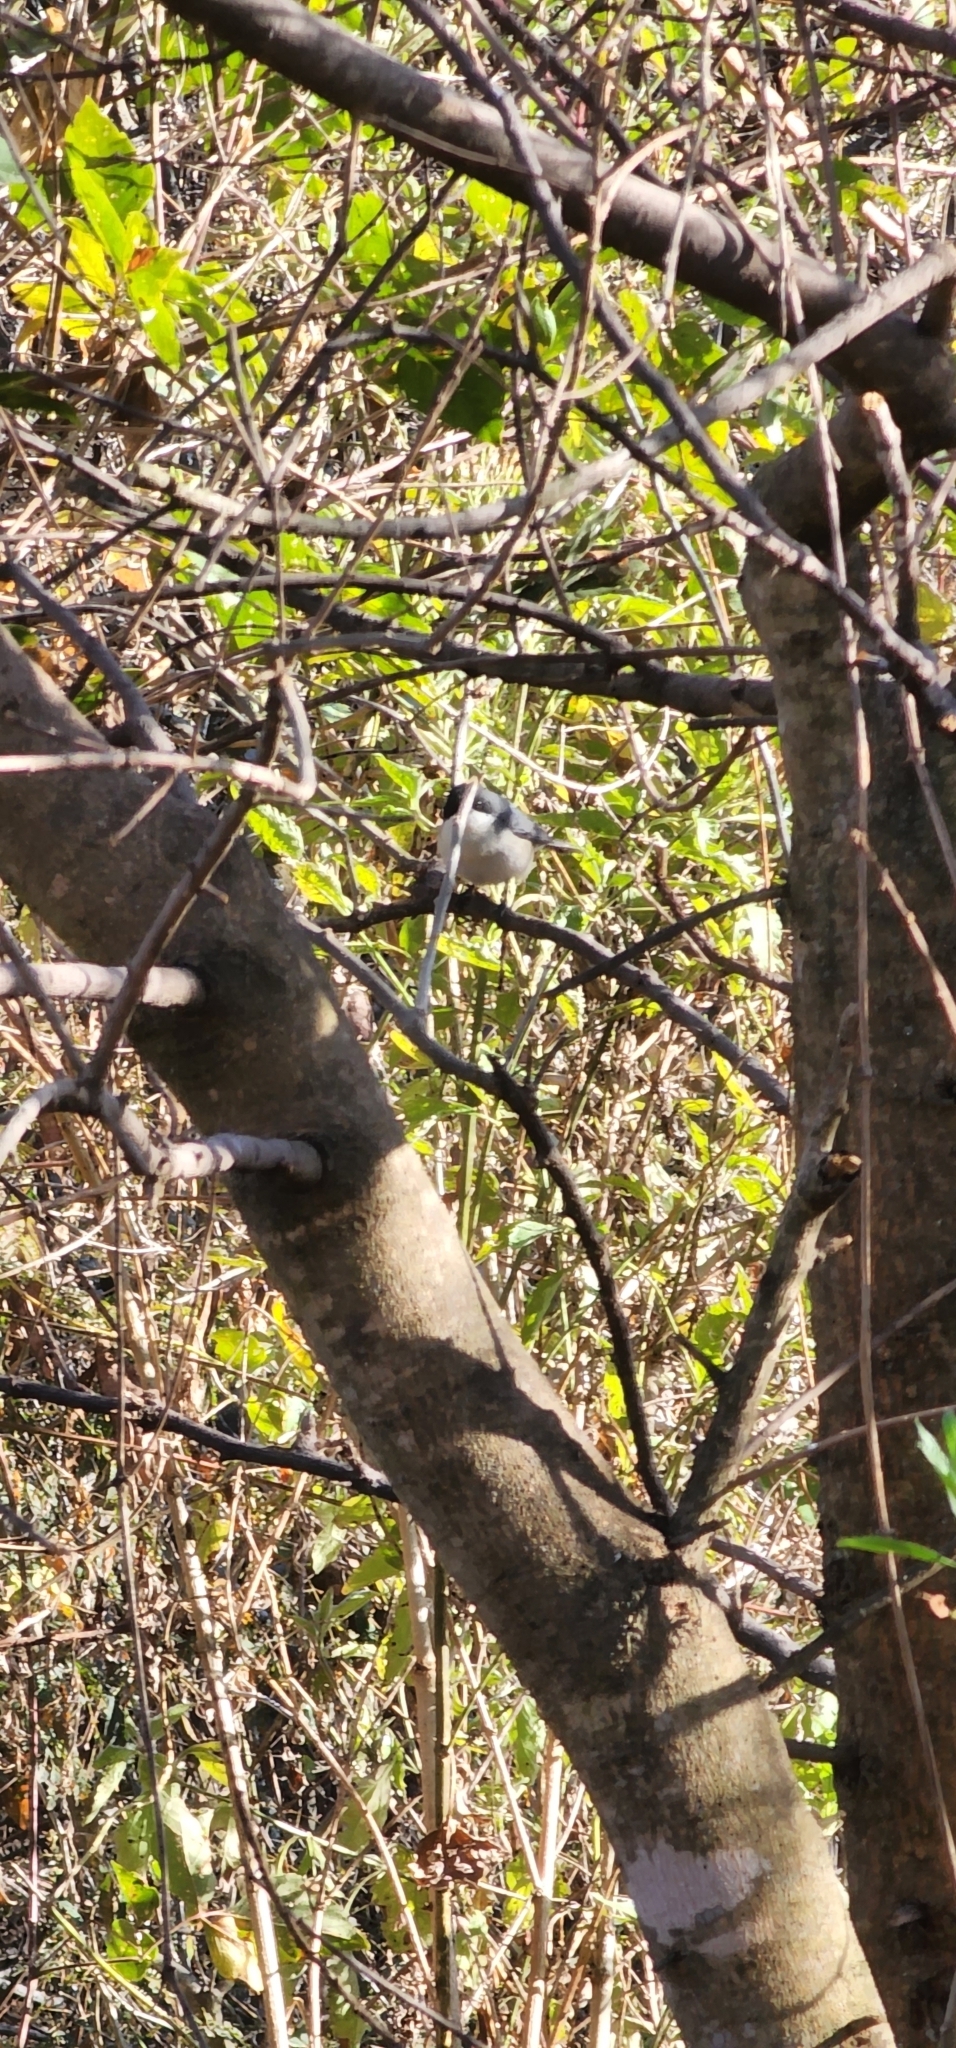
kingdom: Animalia
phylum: Chordata
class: Aves
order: Passeriformes
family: Thraupidae
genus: Microspingus
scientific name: Microspingus melanoleucus
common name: Black-capped warbling-finch
